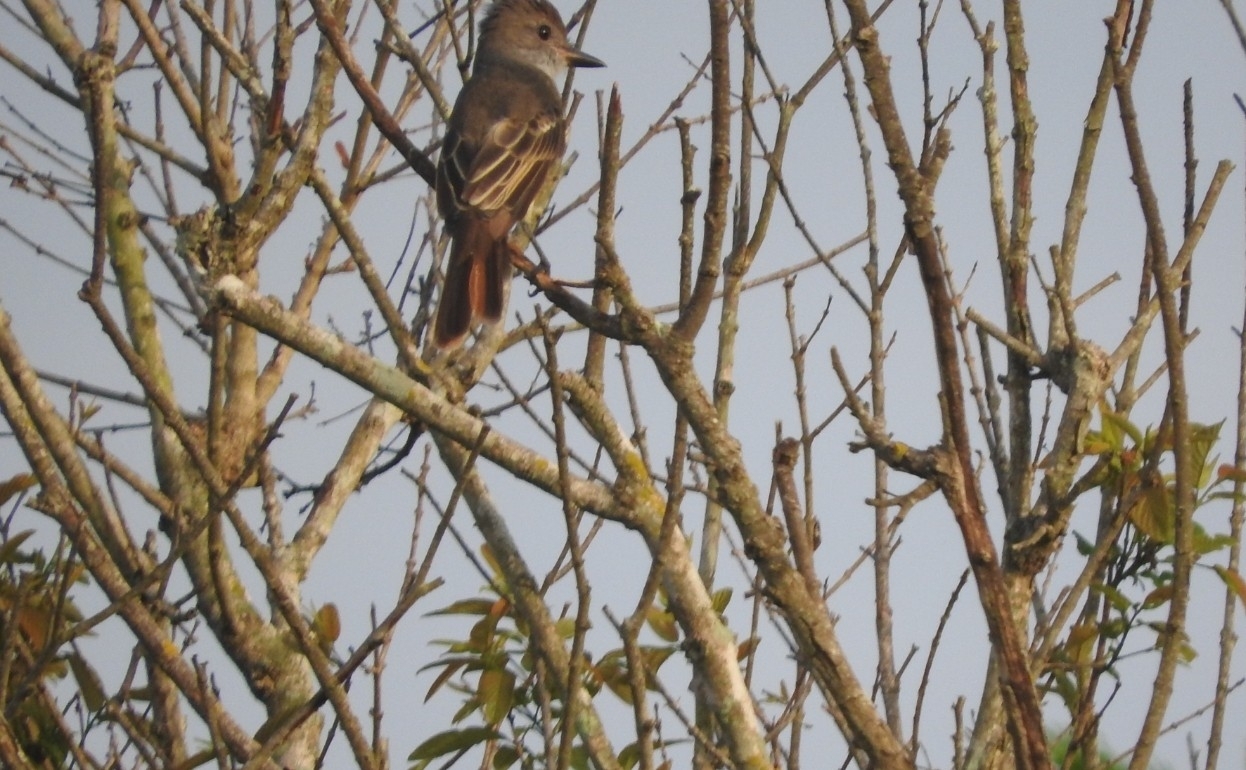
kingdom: Animalia
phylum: Chordata
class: Aves
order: Passeriformes
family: Tyrannidae
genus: Myiarchus
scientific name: Myiarchus tyrannulus
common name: Brown-crested flycatcher
